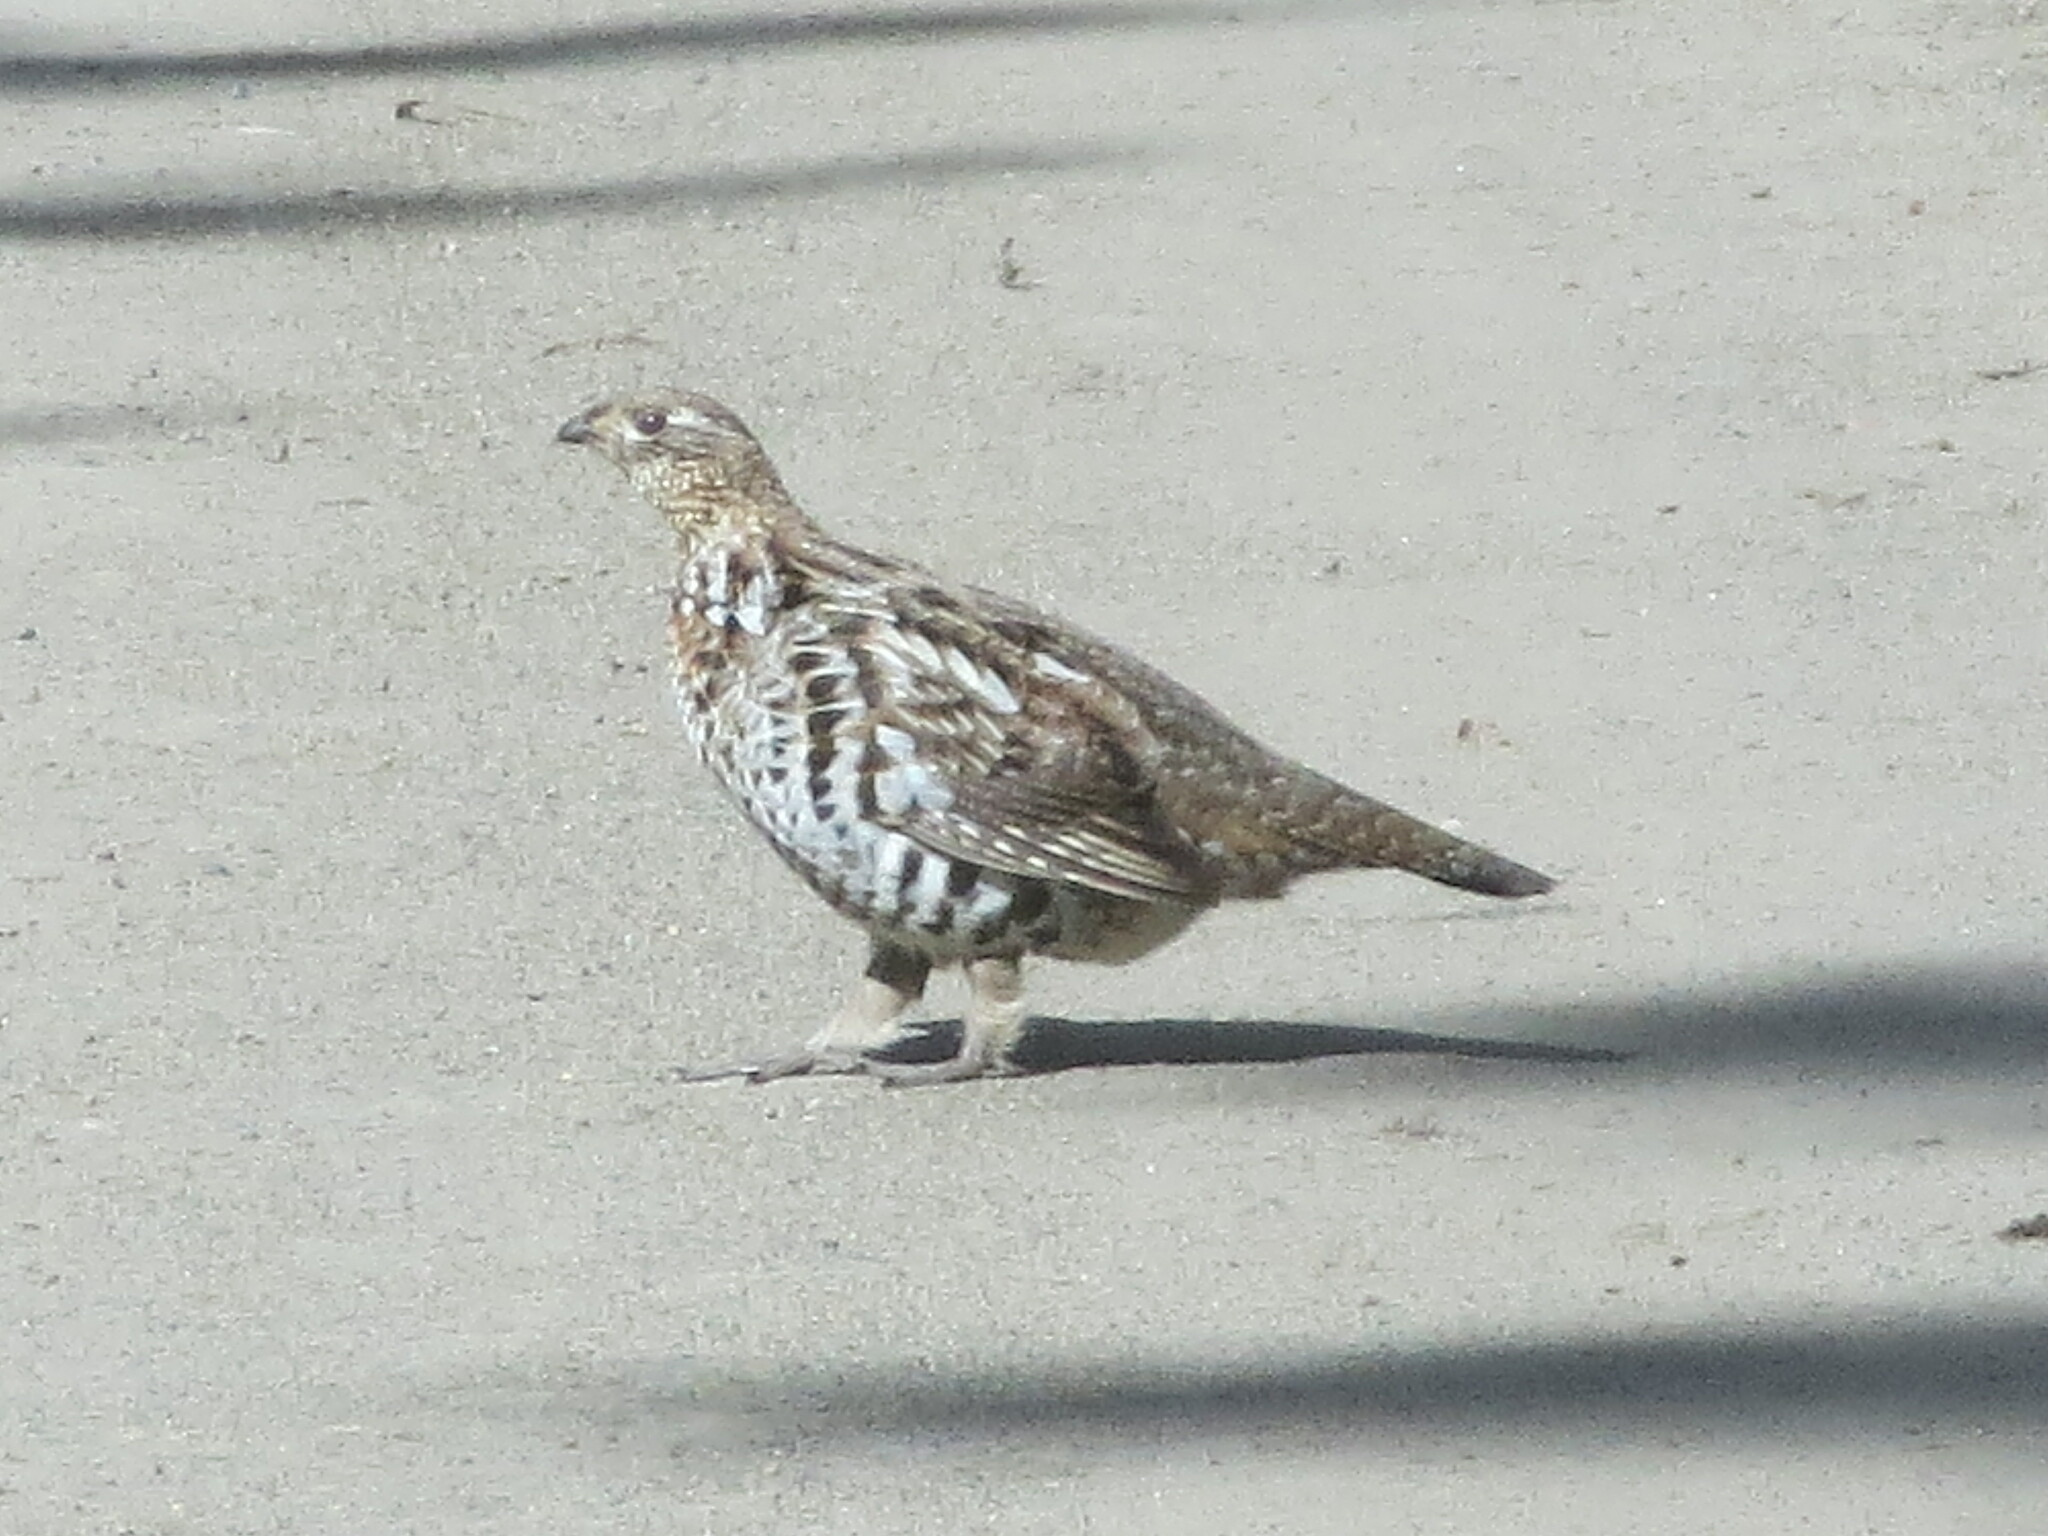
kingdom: Animalia
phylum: Chordata
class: Aves
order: Galliformes
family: Phasianidae
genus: Bonasa
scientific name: Bonasa umbellus
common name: Ruffed grouse
